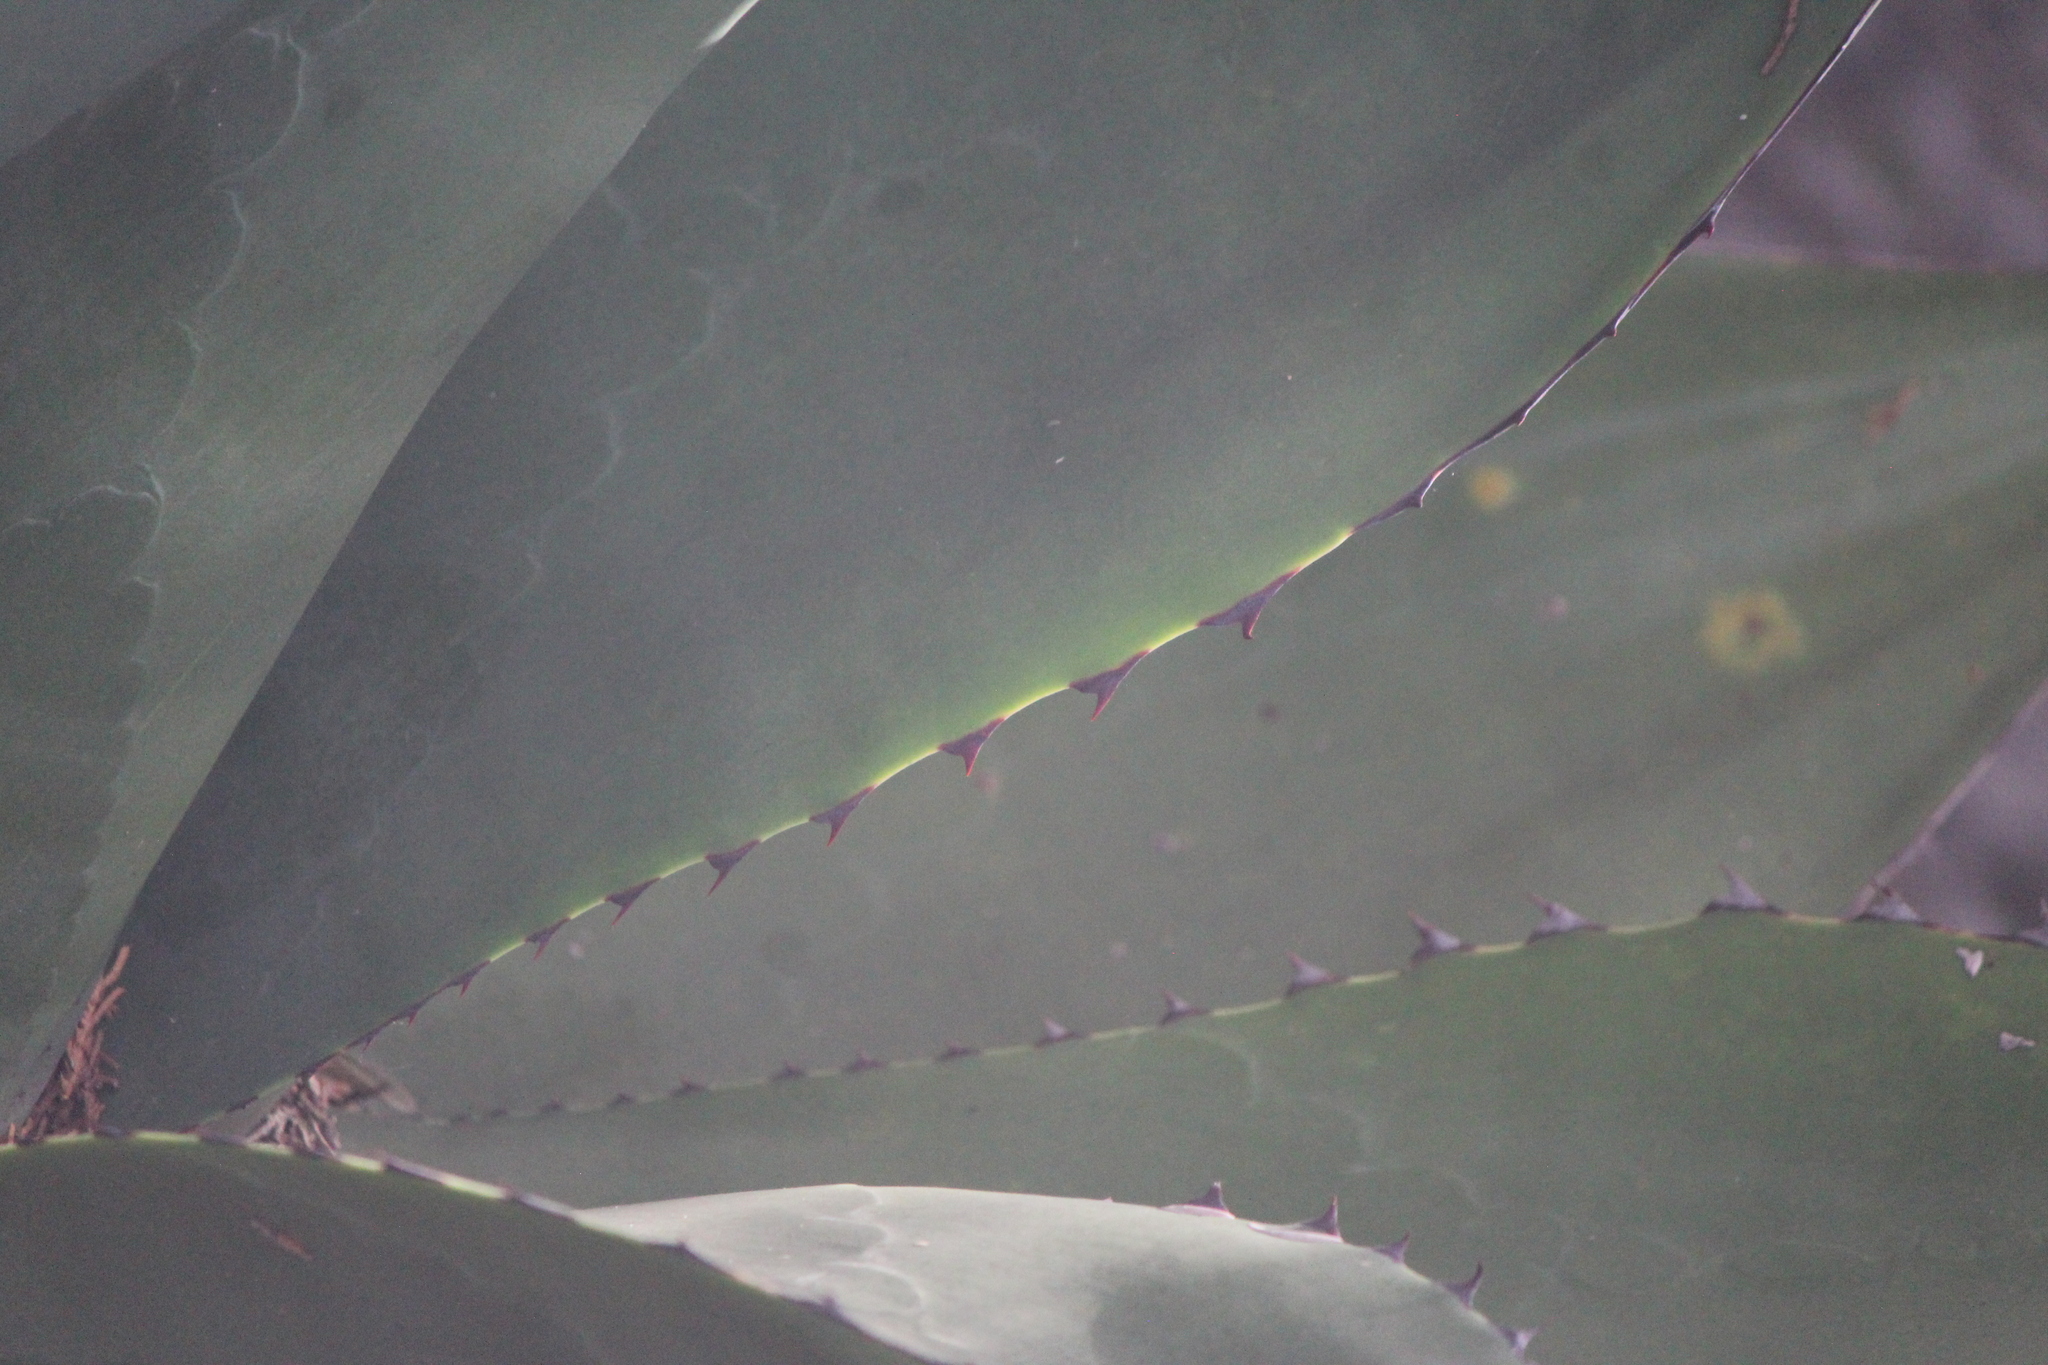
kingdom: Plantae
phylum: Tracheophyta
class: Liliopsida
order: Asparagales
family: Asparagaceae
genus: Agave
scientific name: Agave salmiana
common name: Pulque agave
